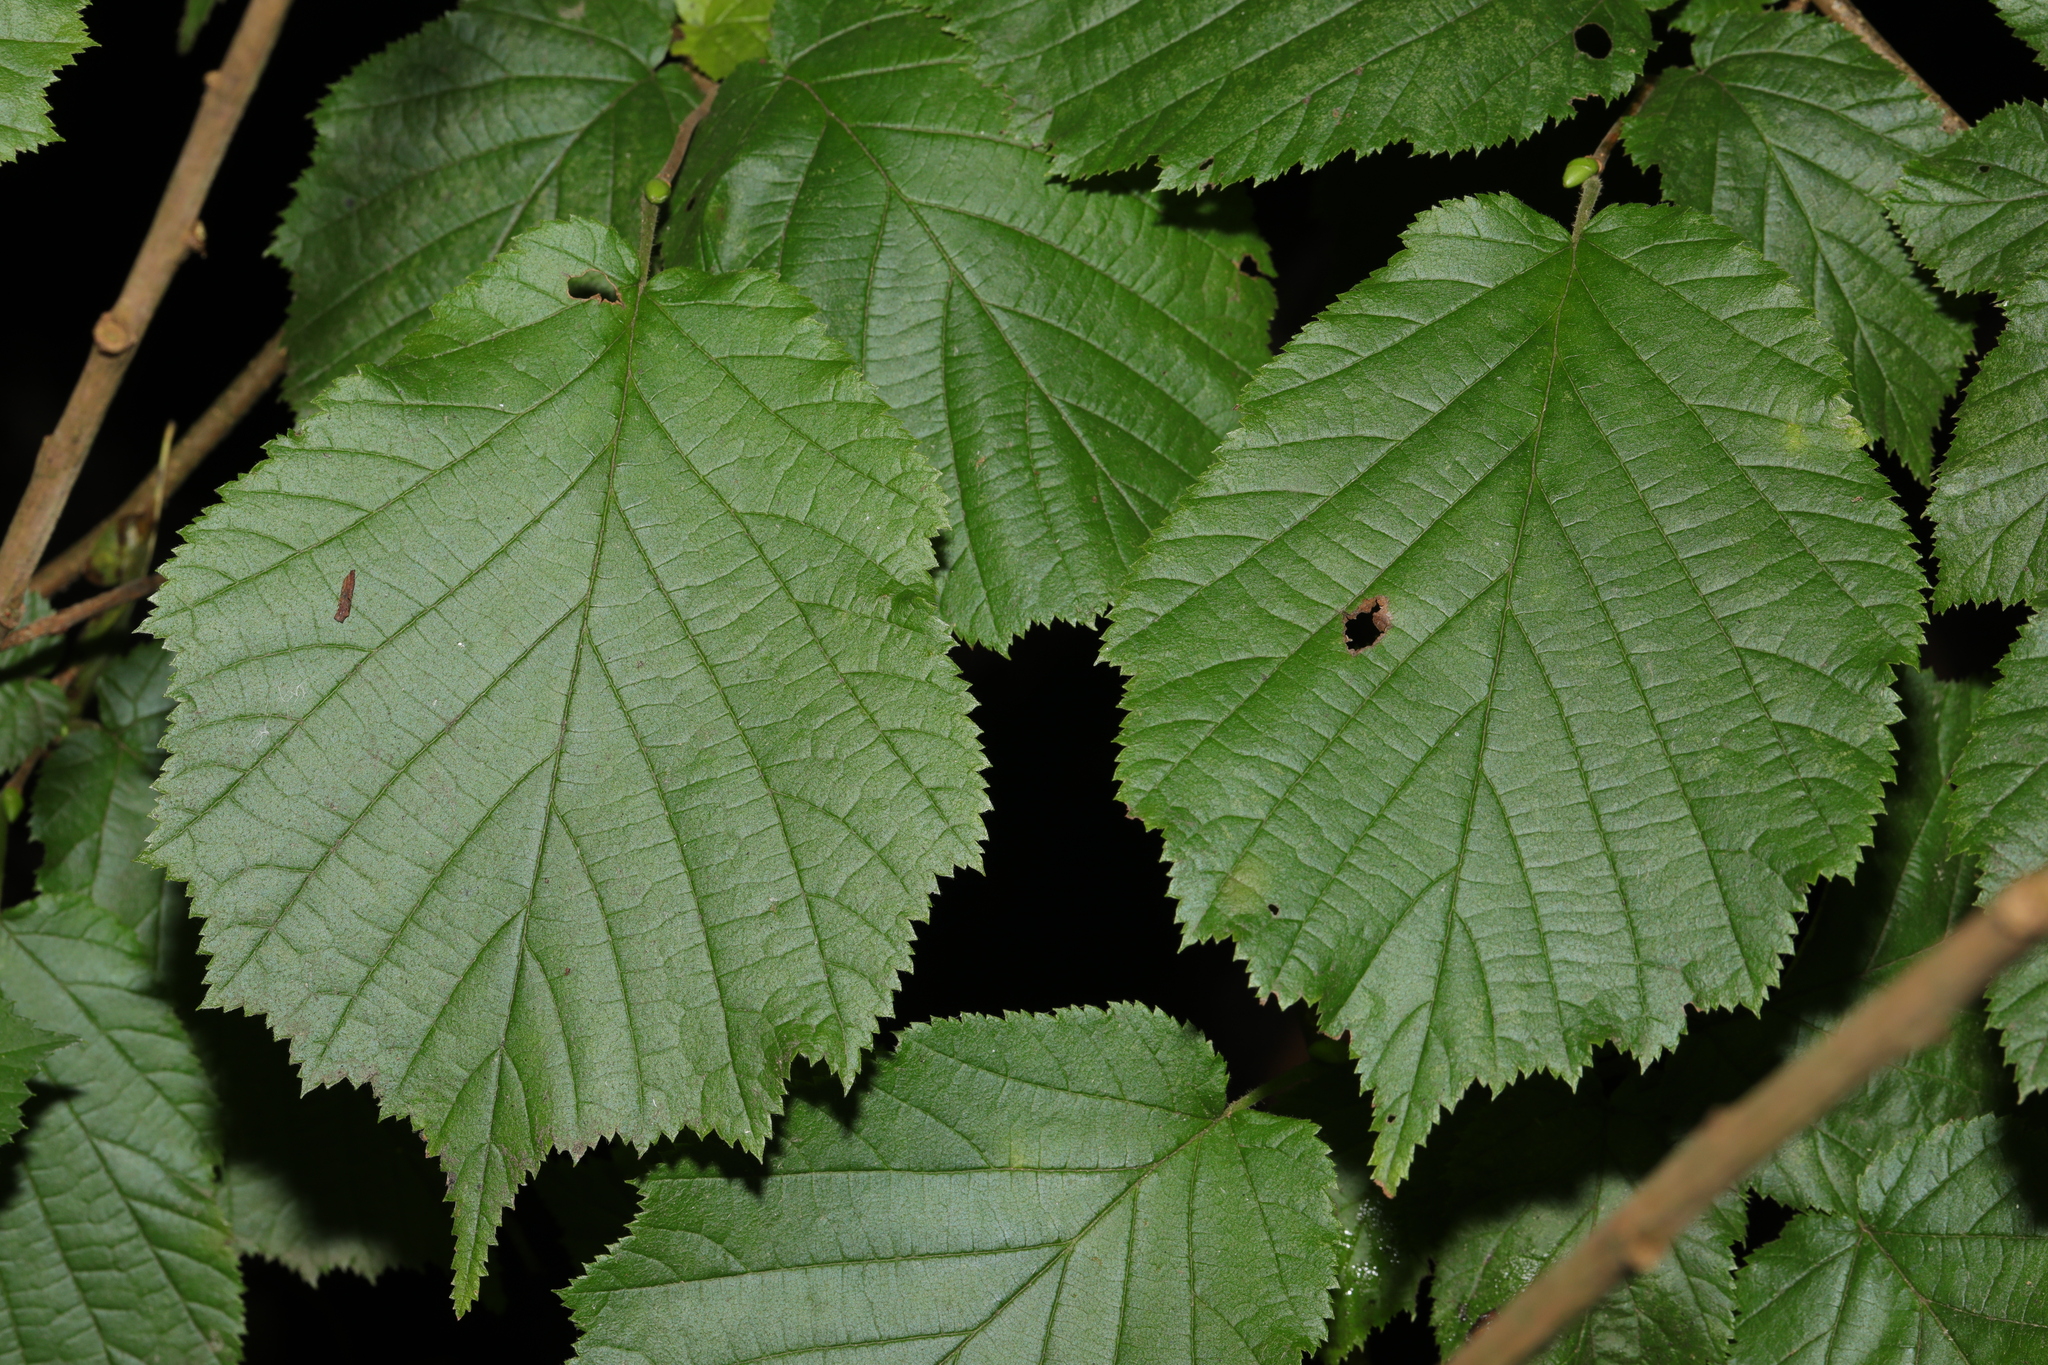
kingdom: Plantae
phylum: Tracheophyta
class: Magnoliopsida
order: Fagales
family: Betulaceae
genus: Corylus
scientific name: Corylus avellana
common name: European hazel
